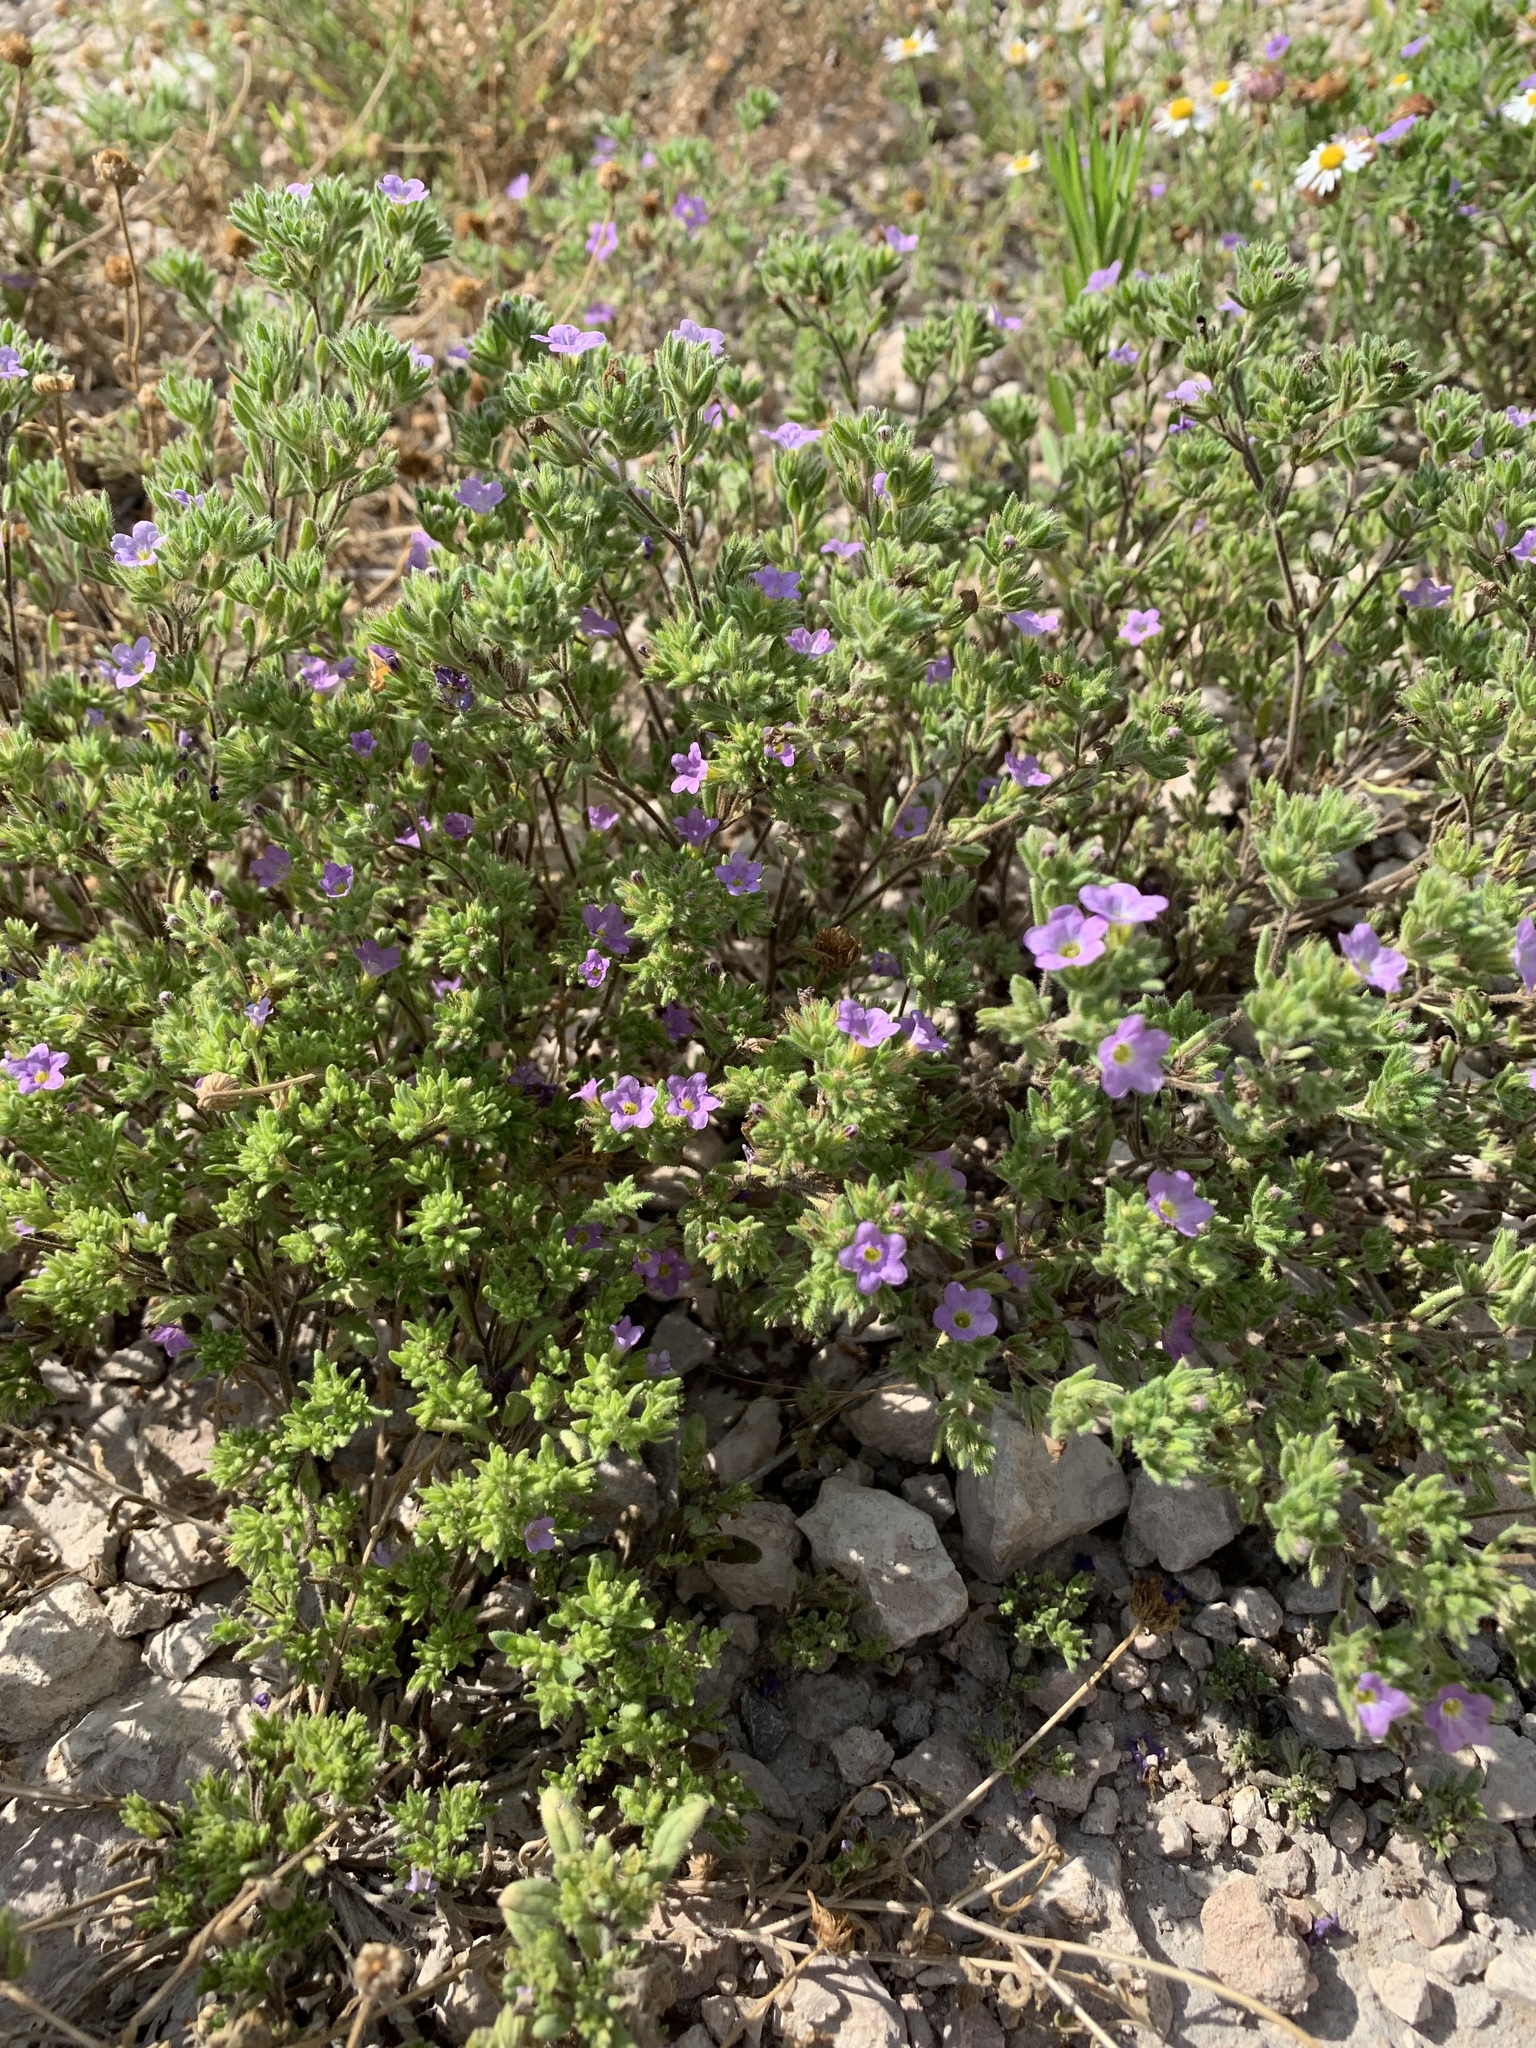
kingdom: Plantae
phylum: Tracheophyta
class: Magnoliopsida
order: Boraginales
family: Namaceae
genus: Nama
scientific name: Nama hispida
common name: Bristly nama
